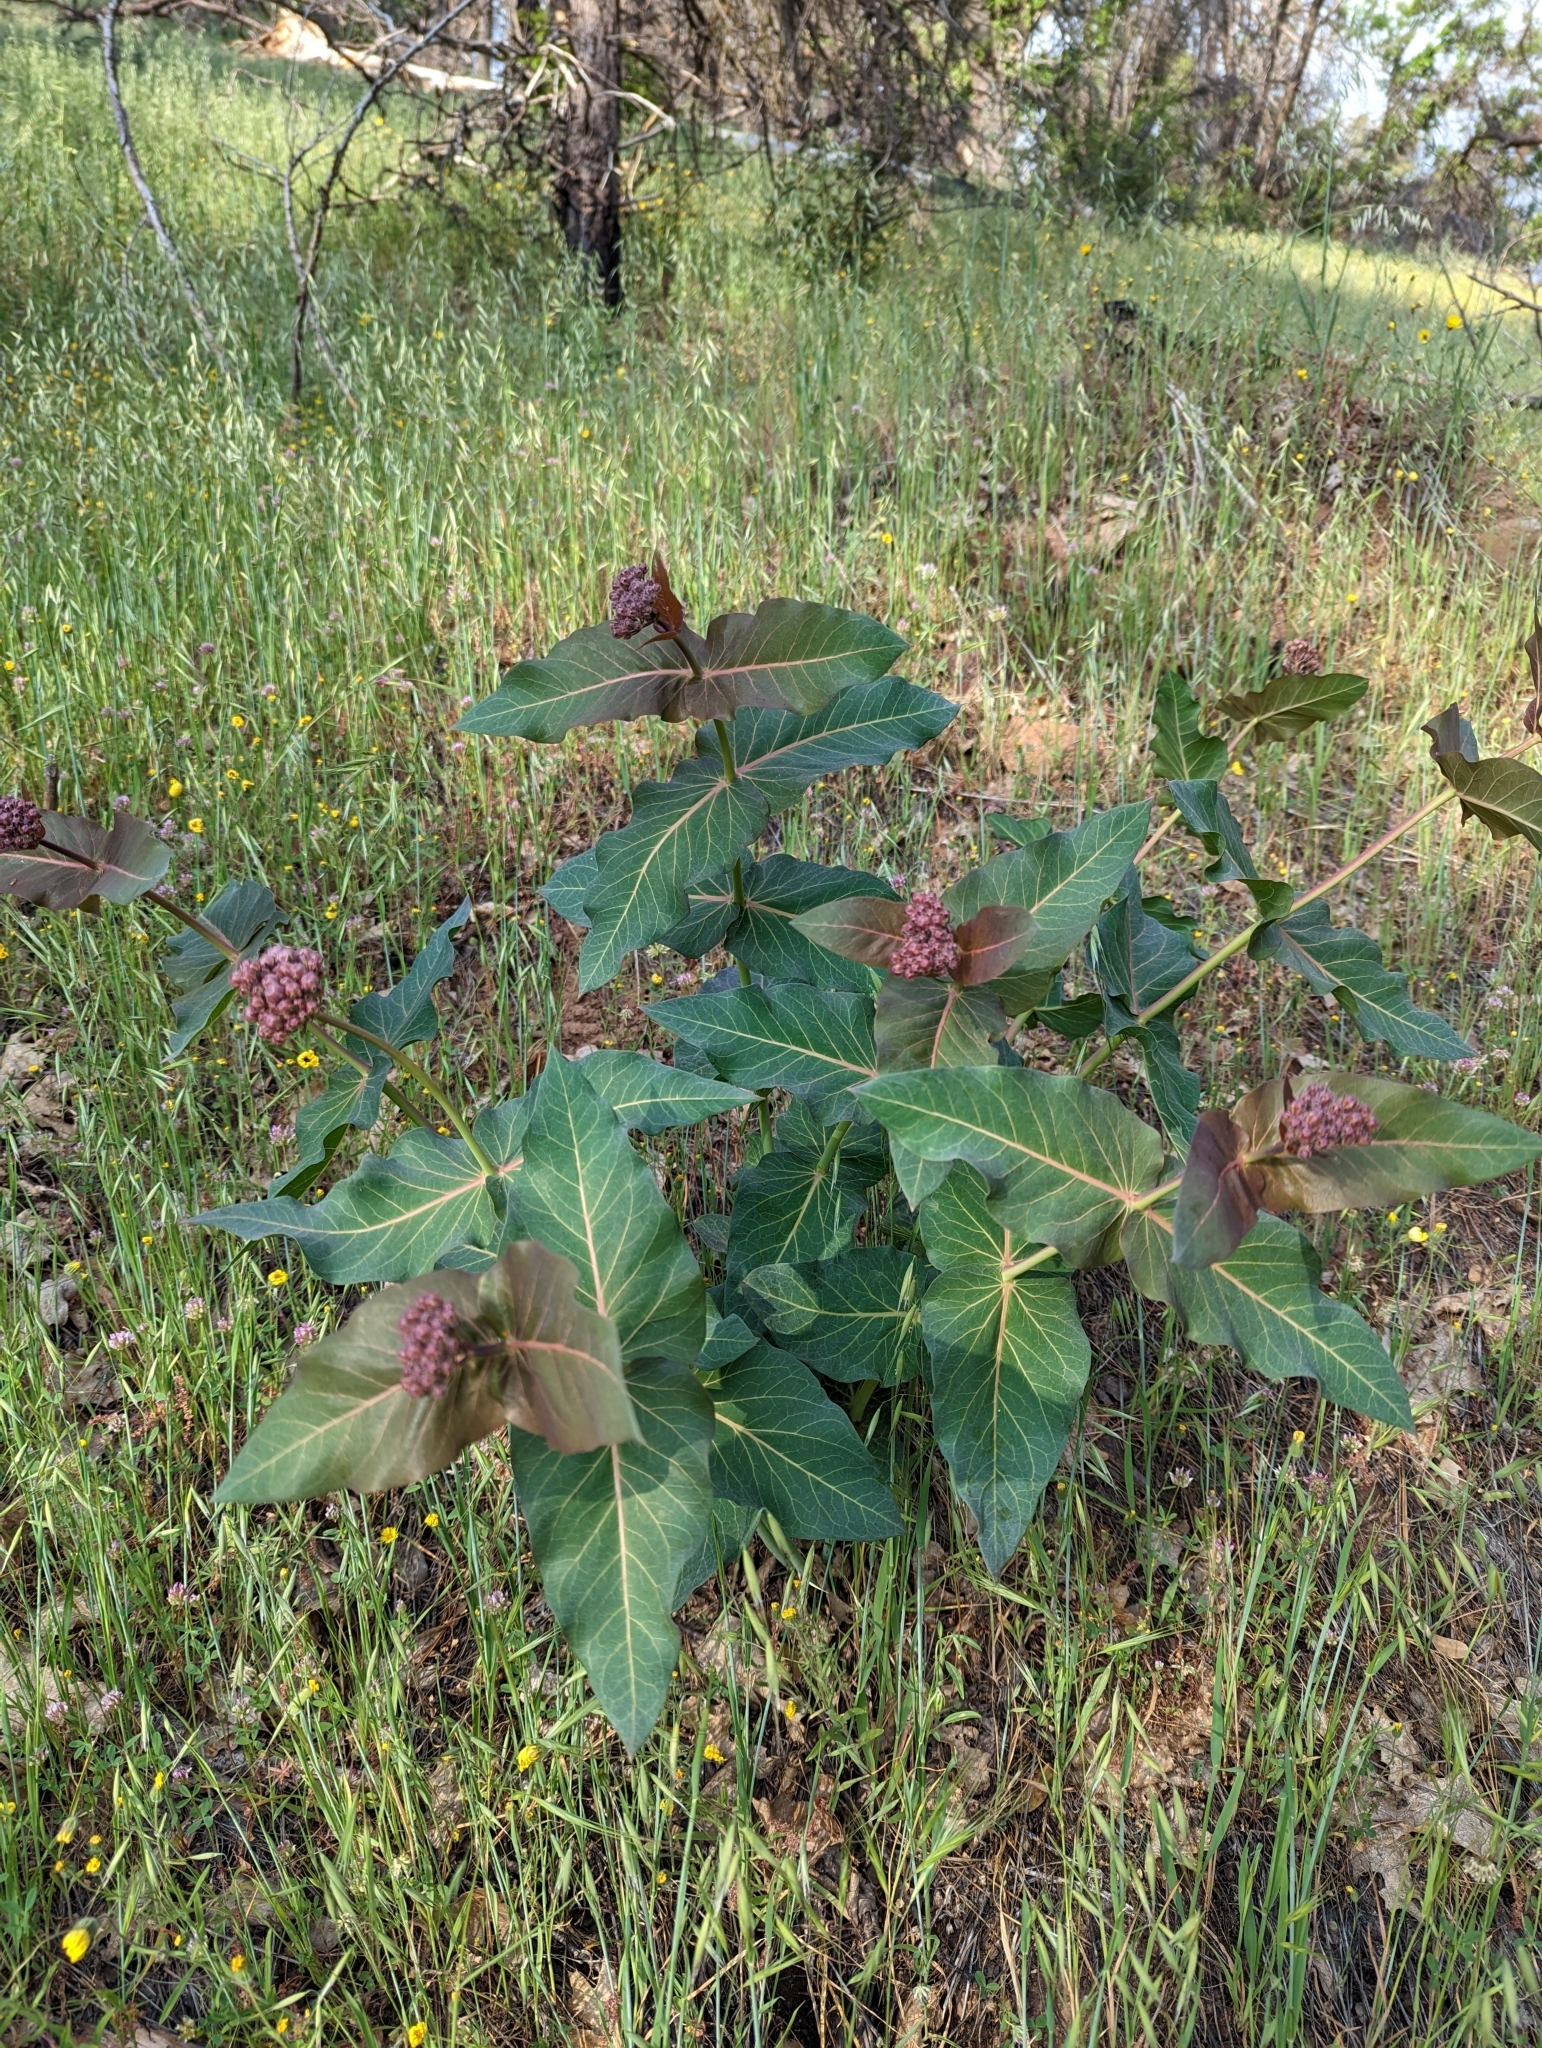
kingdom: Plantae
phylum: Tracheophyta
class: Magnoliopsida
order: Gentianales
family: Apocynaceae
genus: Asclepias
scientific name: Asclepias cordifolia
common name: Purple milkweed
